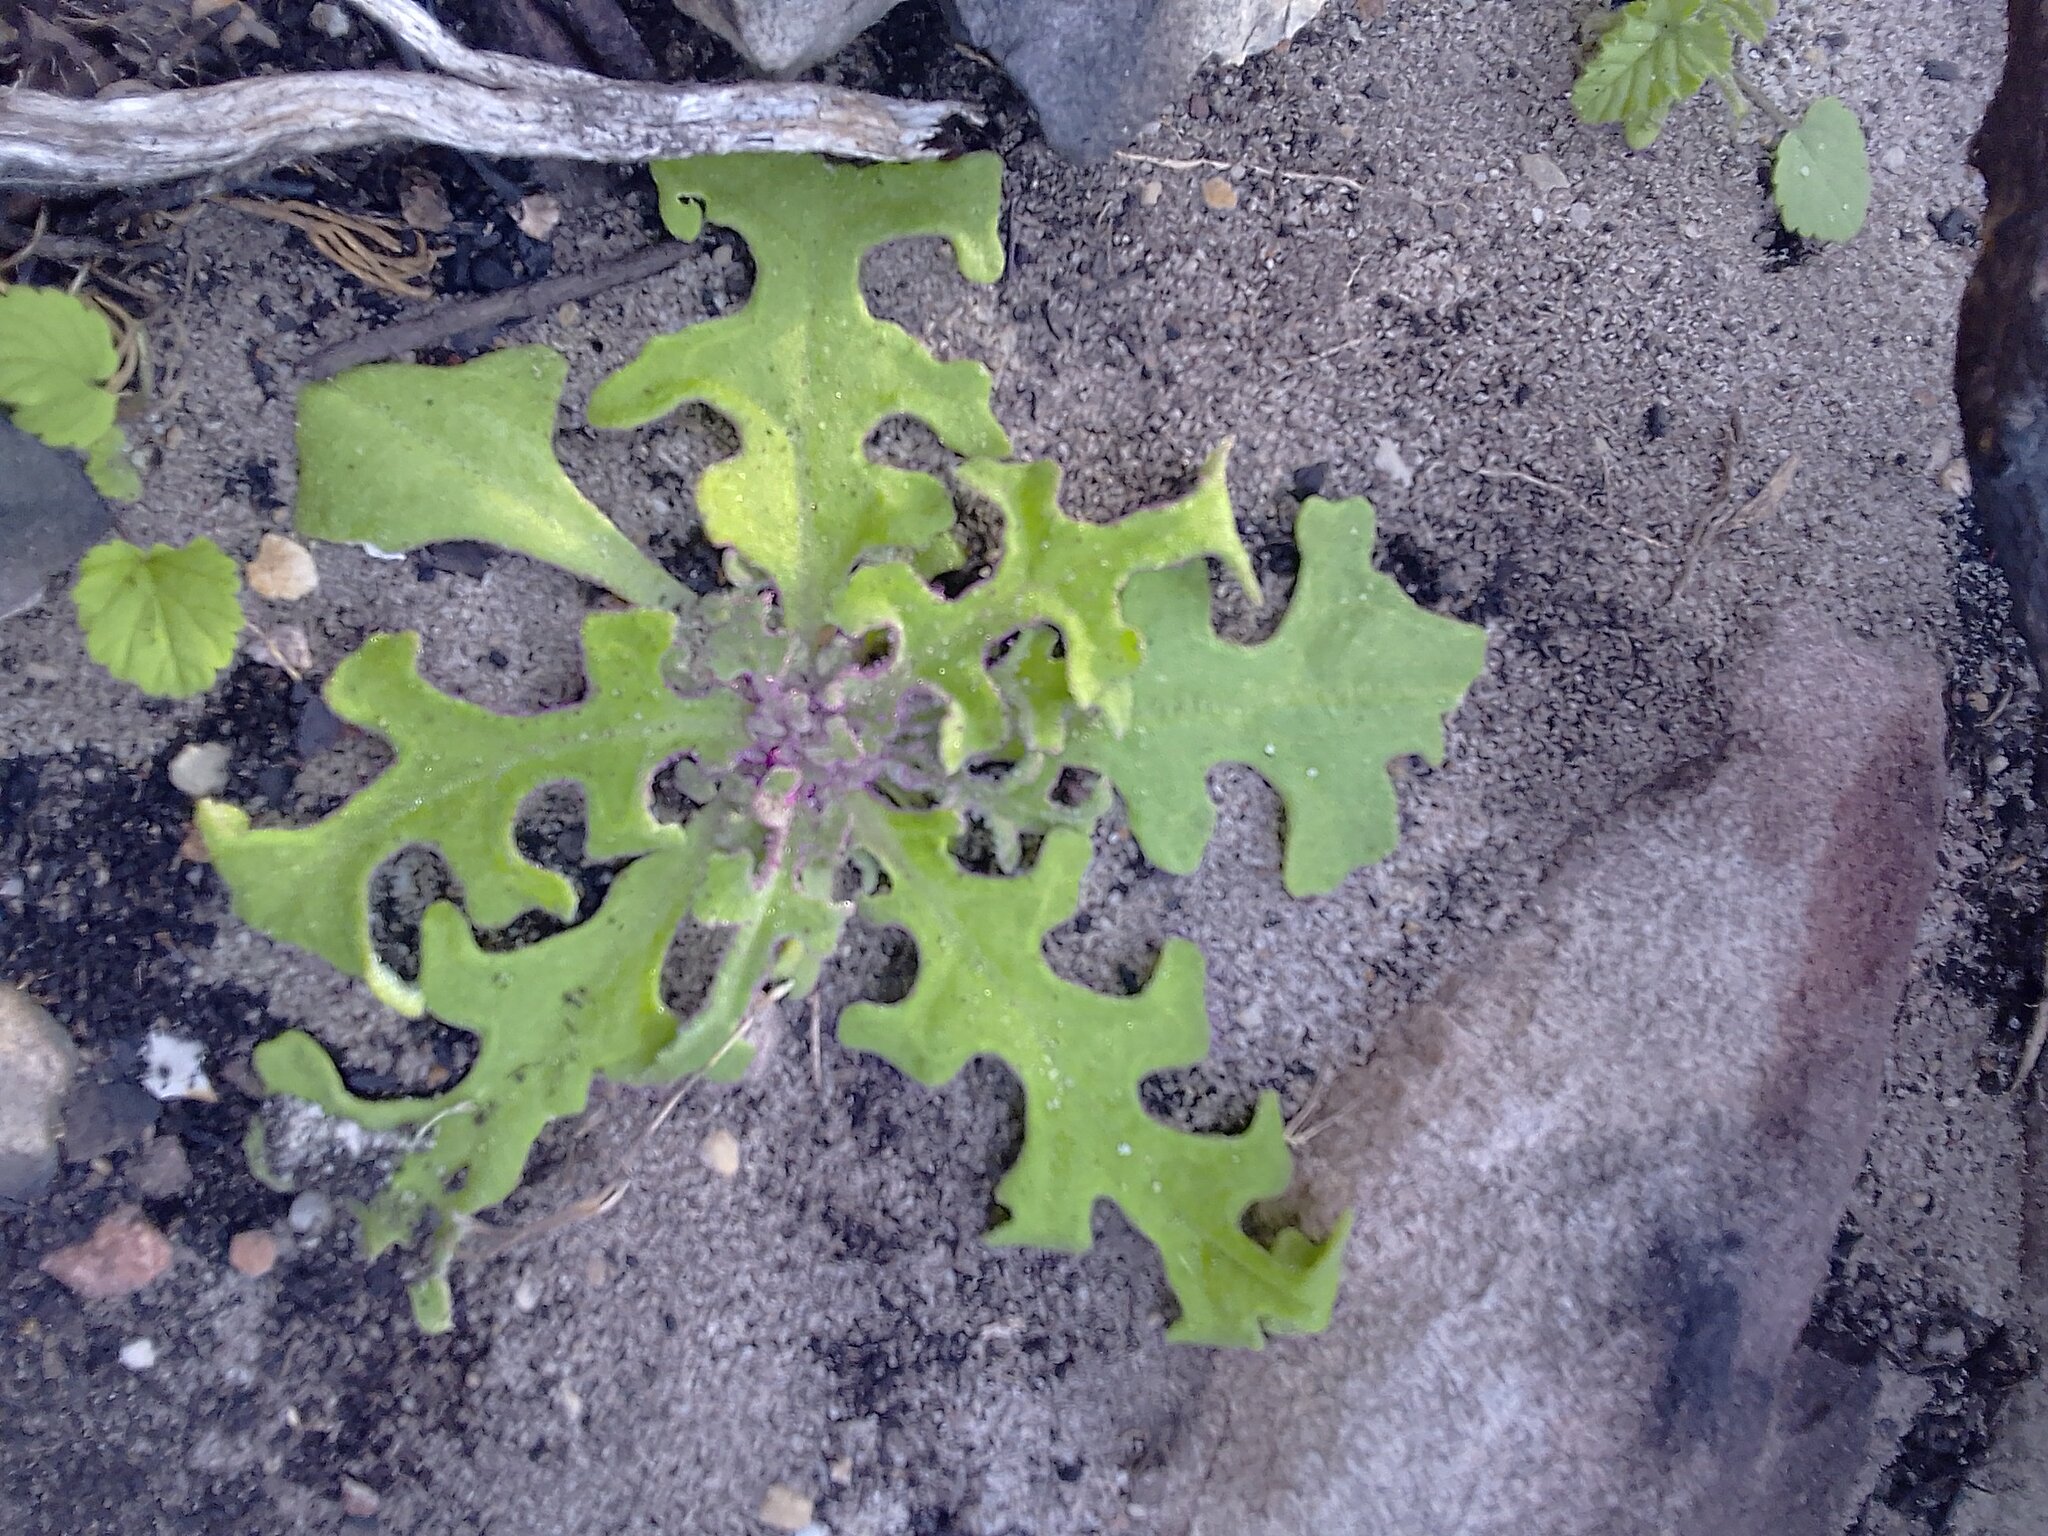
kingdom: Plantae
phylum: Tracheophyta
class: Magnoliopsida
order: Caryophyllales
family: Aizoaceae
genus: Cleretum
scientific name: Cleretum herrei
